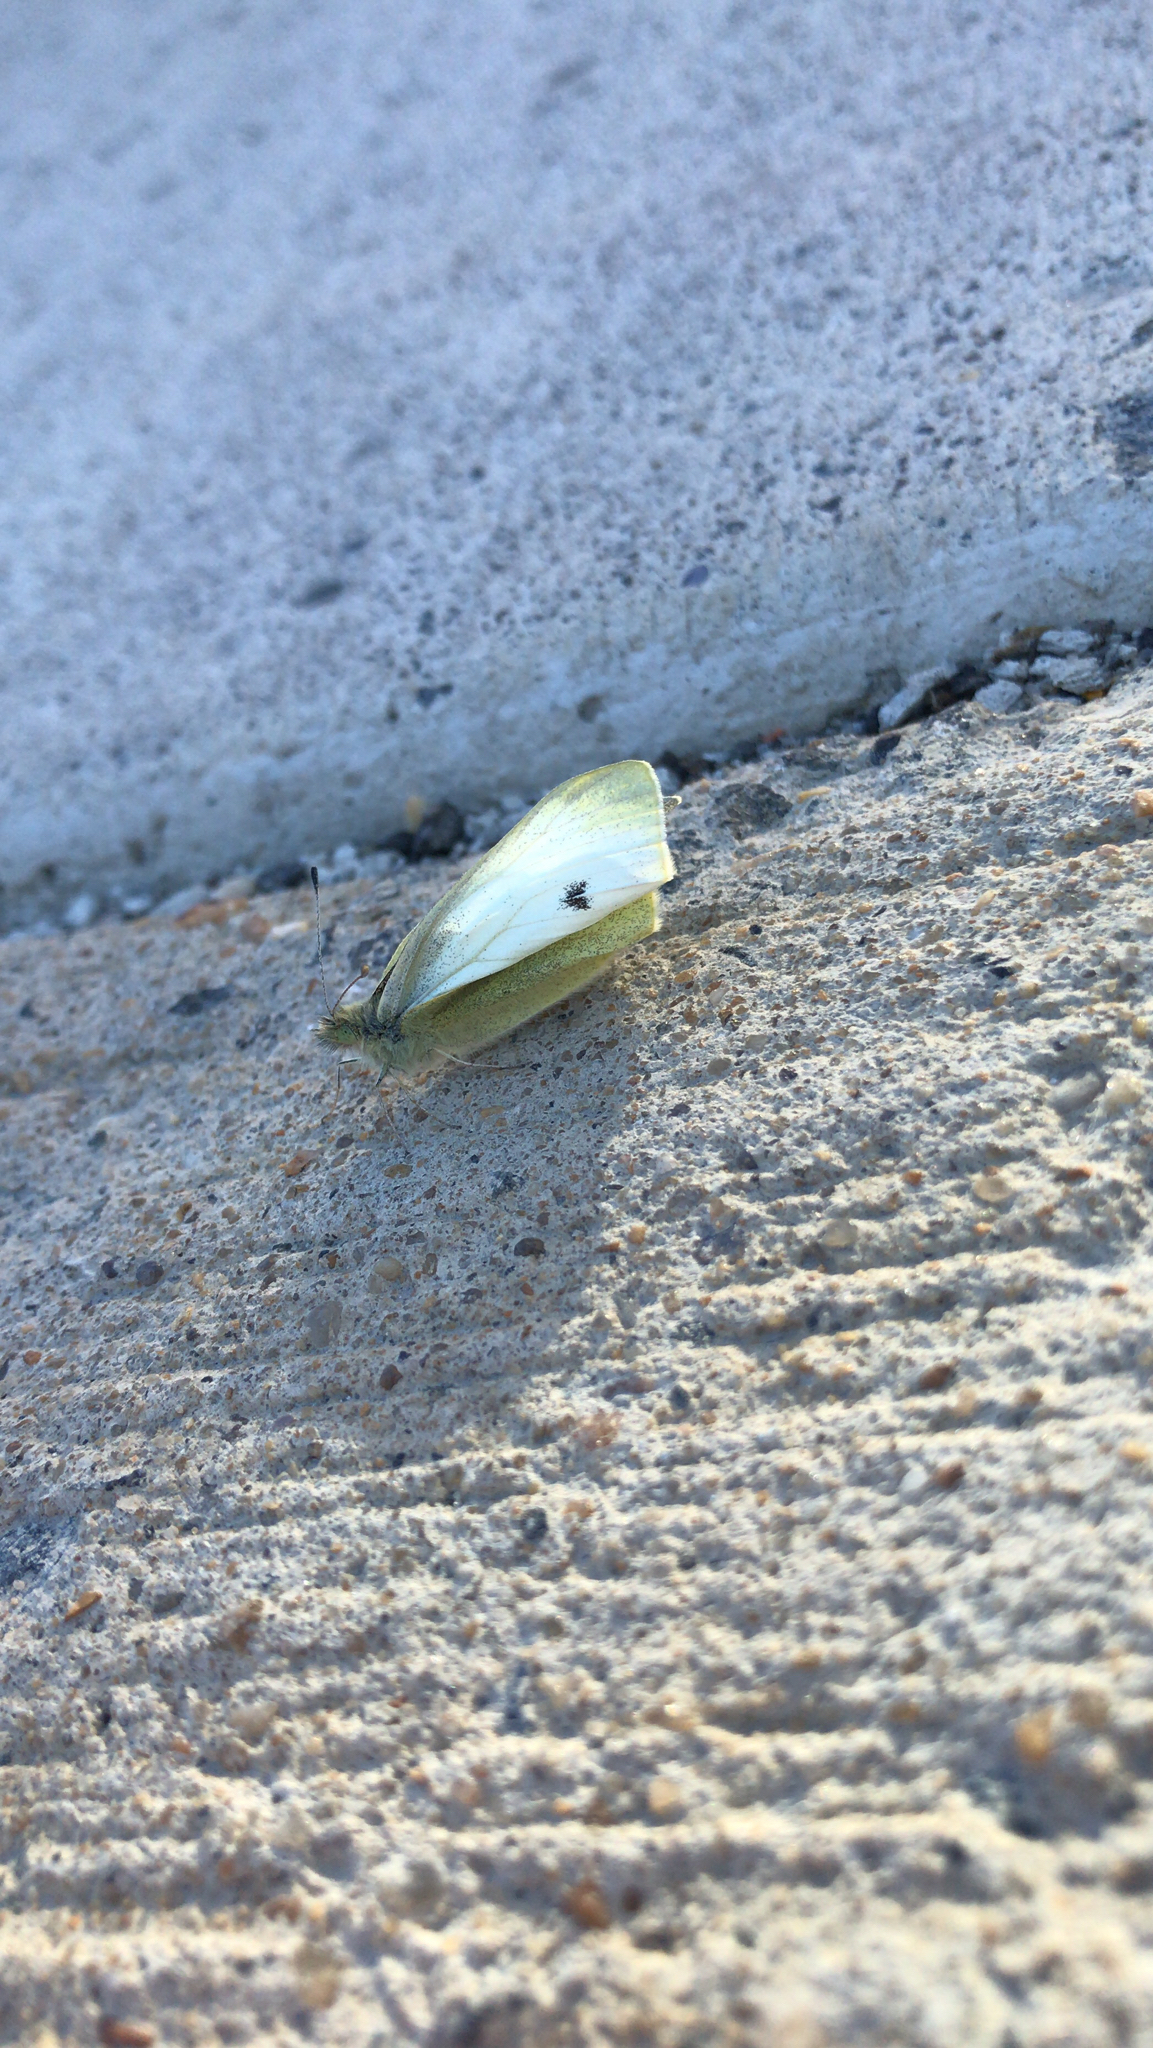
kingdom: Animalia
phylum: Arthropoda
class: Insecta
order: Lepidoptera
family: Pieridae
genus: Pieris
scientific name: Pieris rapae
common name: Small white
